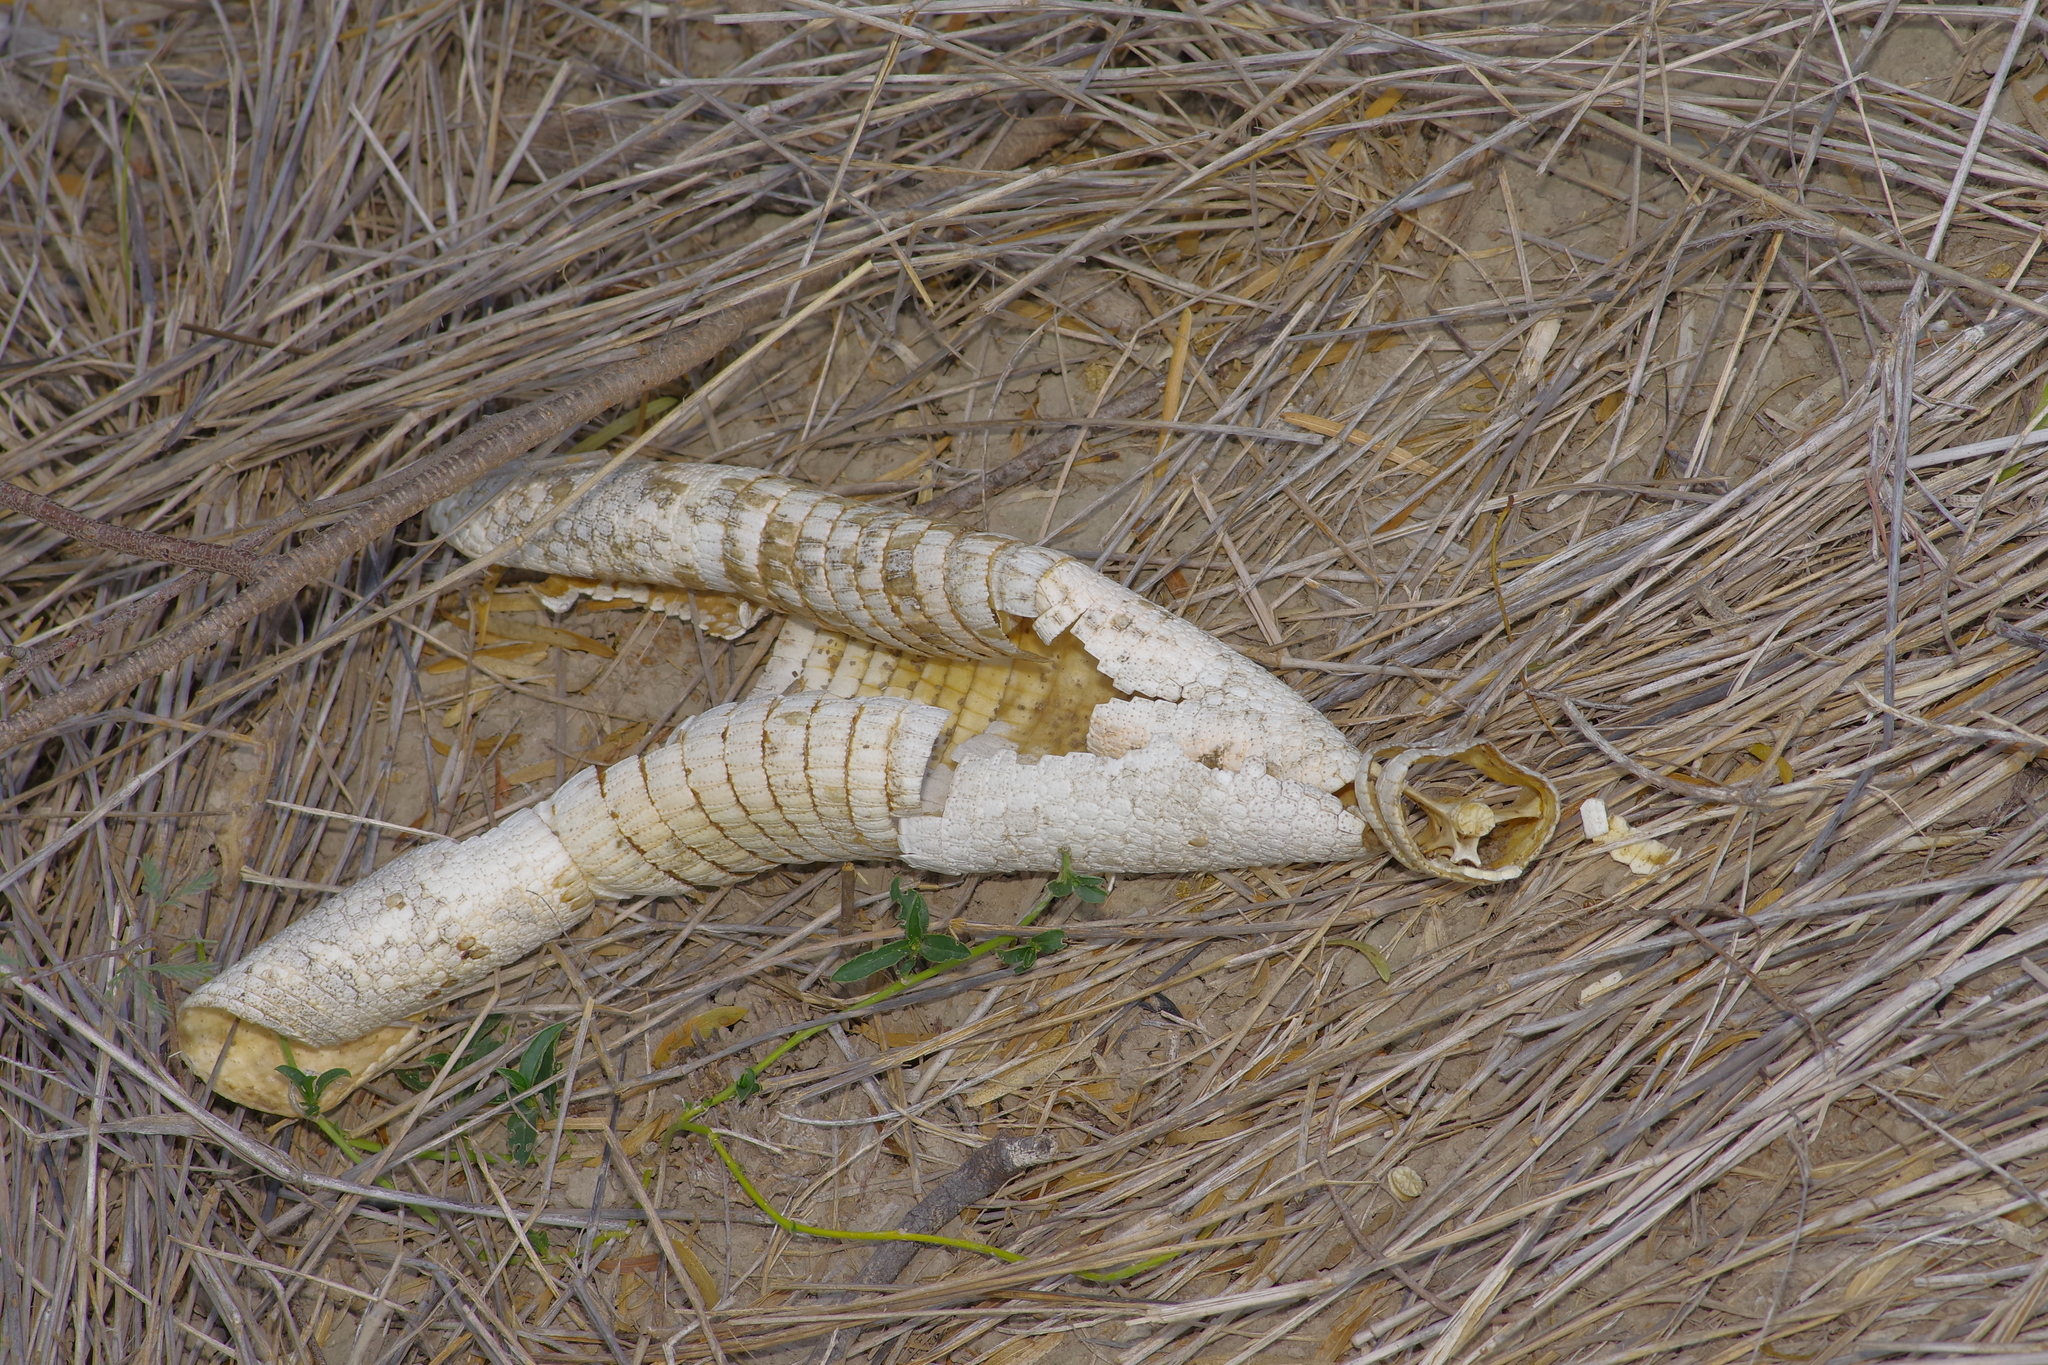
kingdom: Animalia
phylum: Chordata
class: Mammalia
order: Cingulata
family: Dasypodidae
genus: Dasypus
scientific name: Dasypus novemcinctus
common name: Nine-banded armadillo
